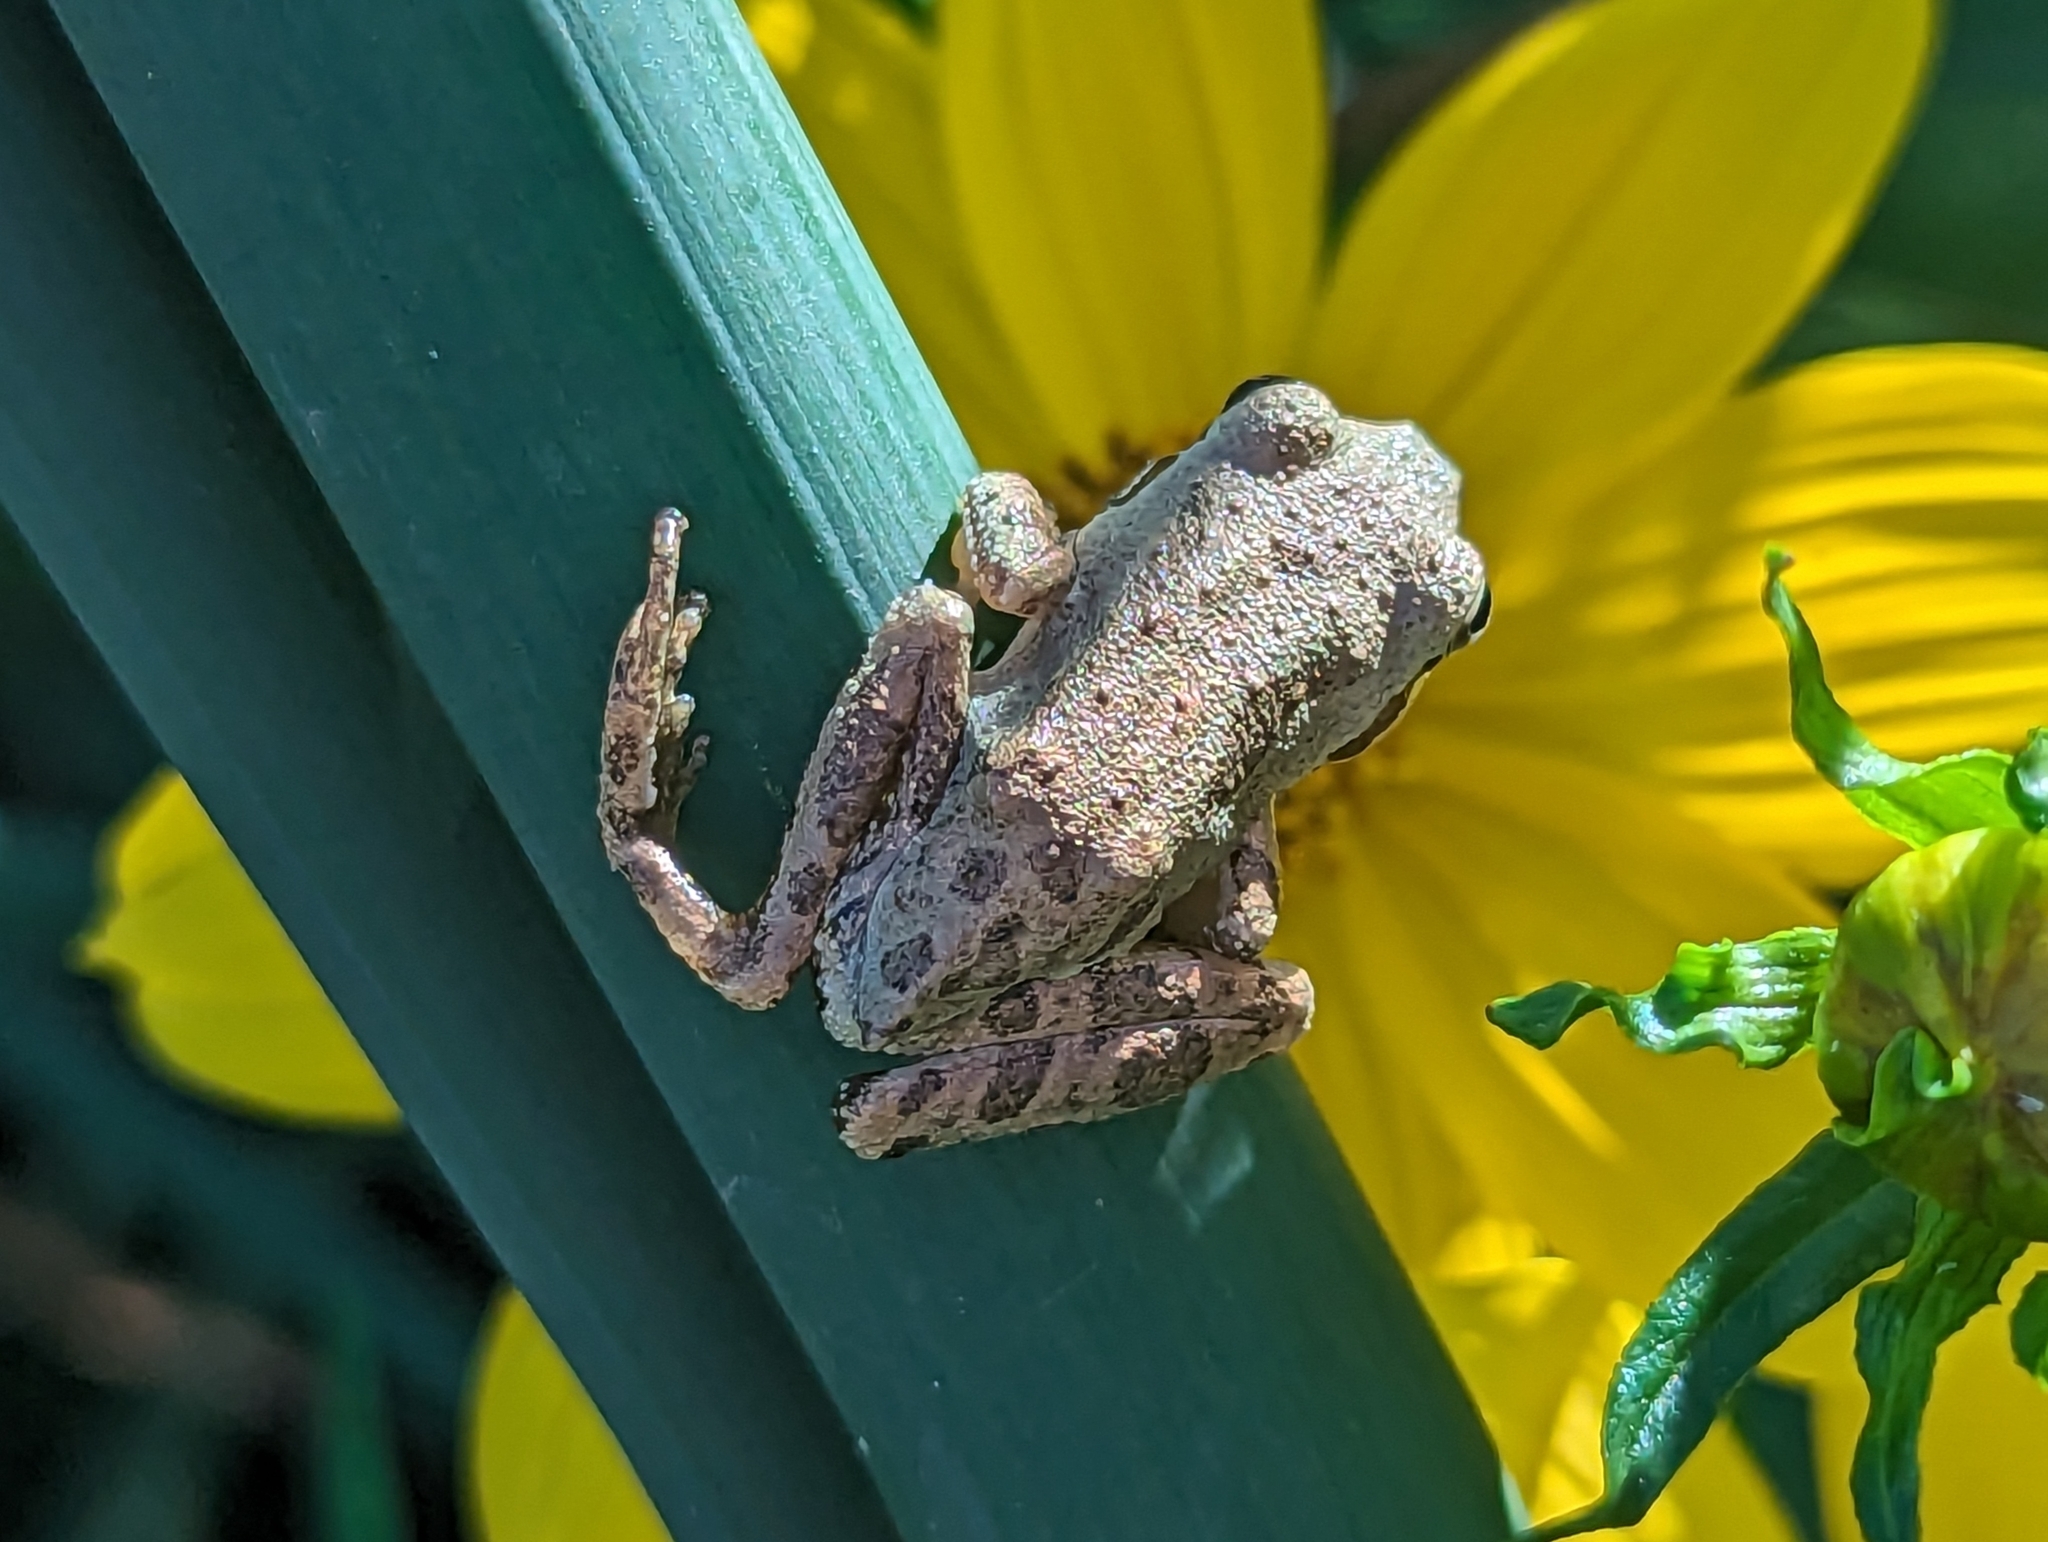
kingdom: Animalia
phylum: Chordata
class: Amphibia
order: Anura
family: Hylidae
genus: Pseudacris
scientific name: Pseudacris regilla
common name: Pacific chorus frog
